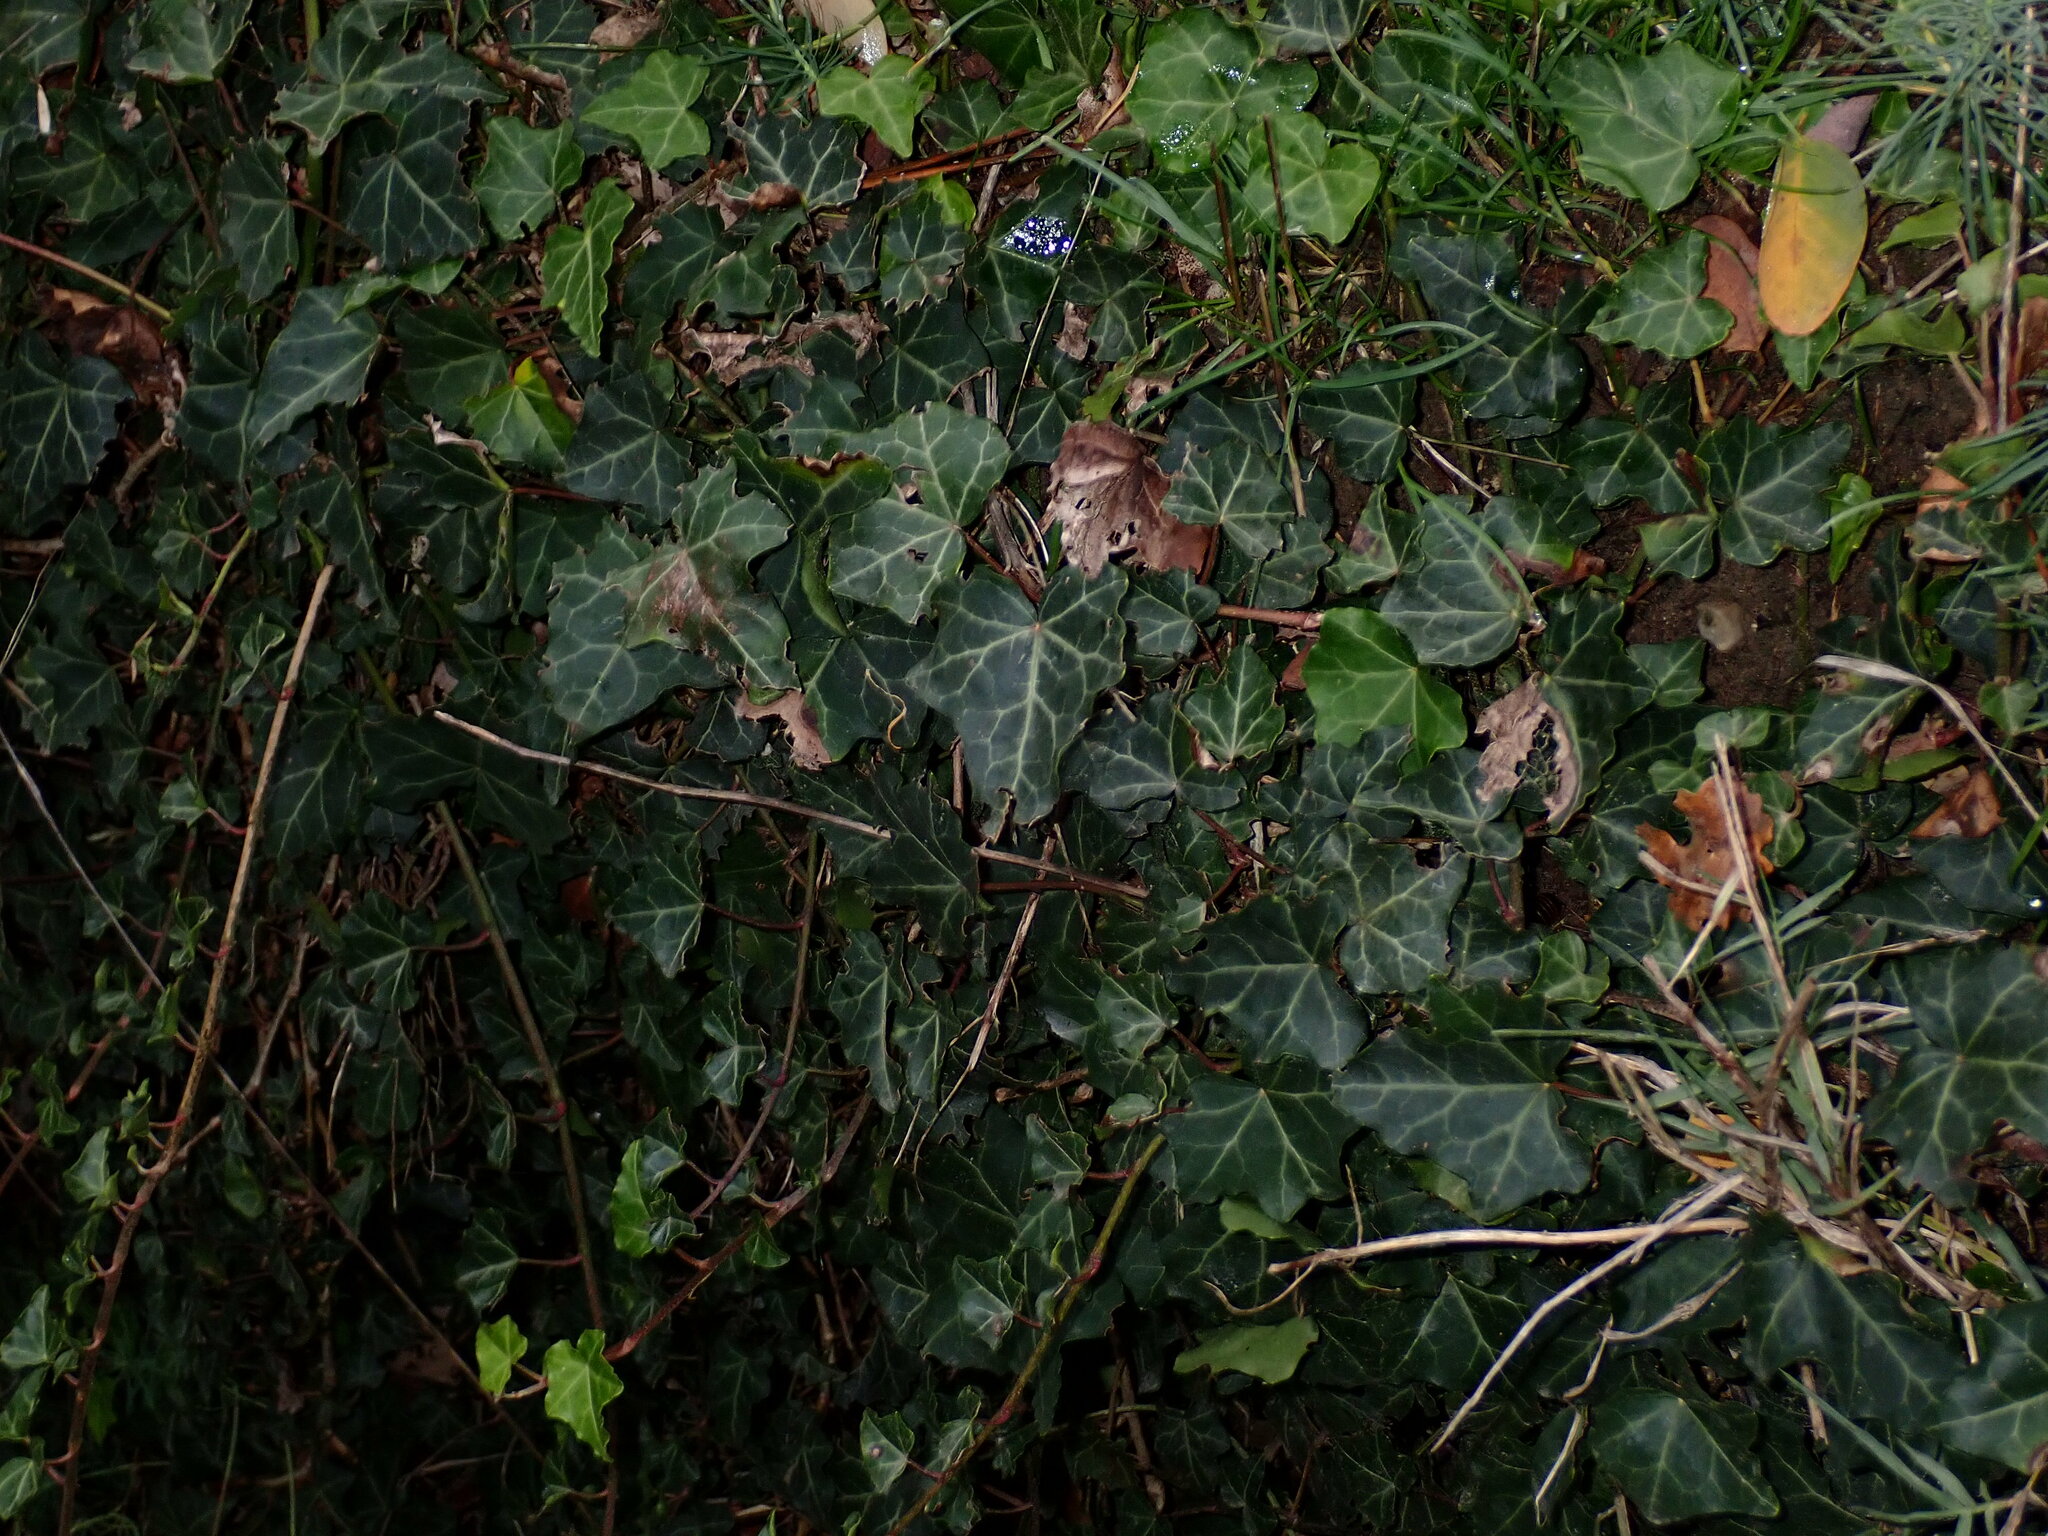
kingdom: Plantae
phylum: Tracheophyta
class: Magnoliopsida
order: Apiales
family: Araliaceae
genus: Hedera
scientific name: Hedera helix
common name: Ivy
